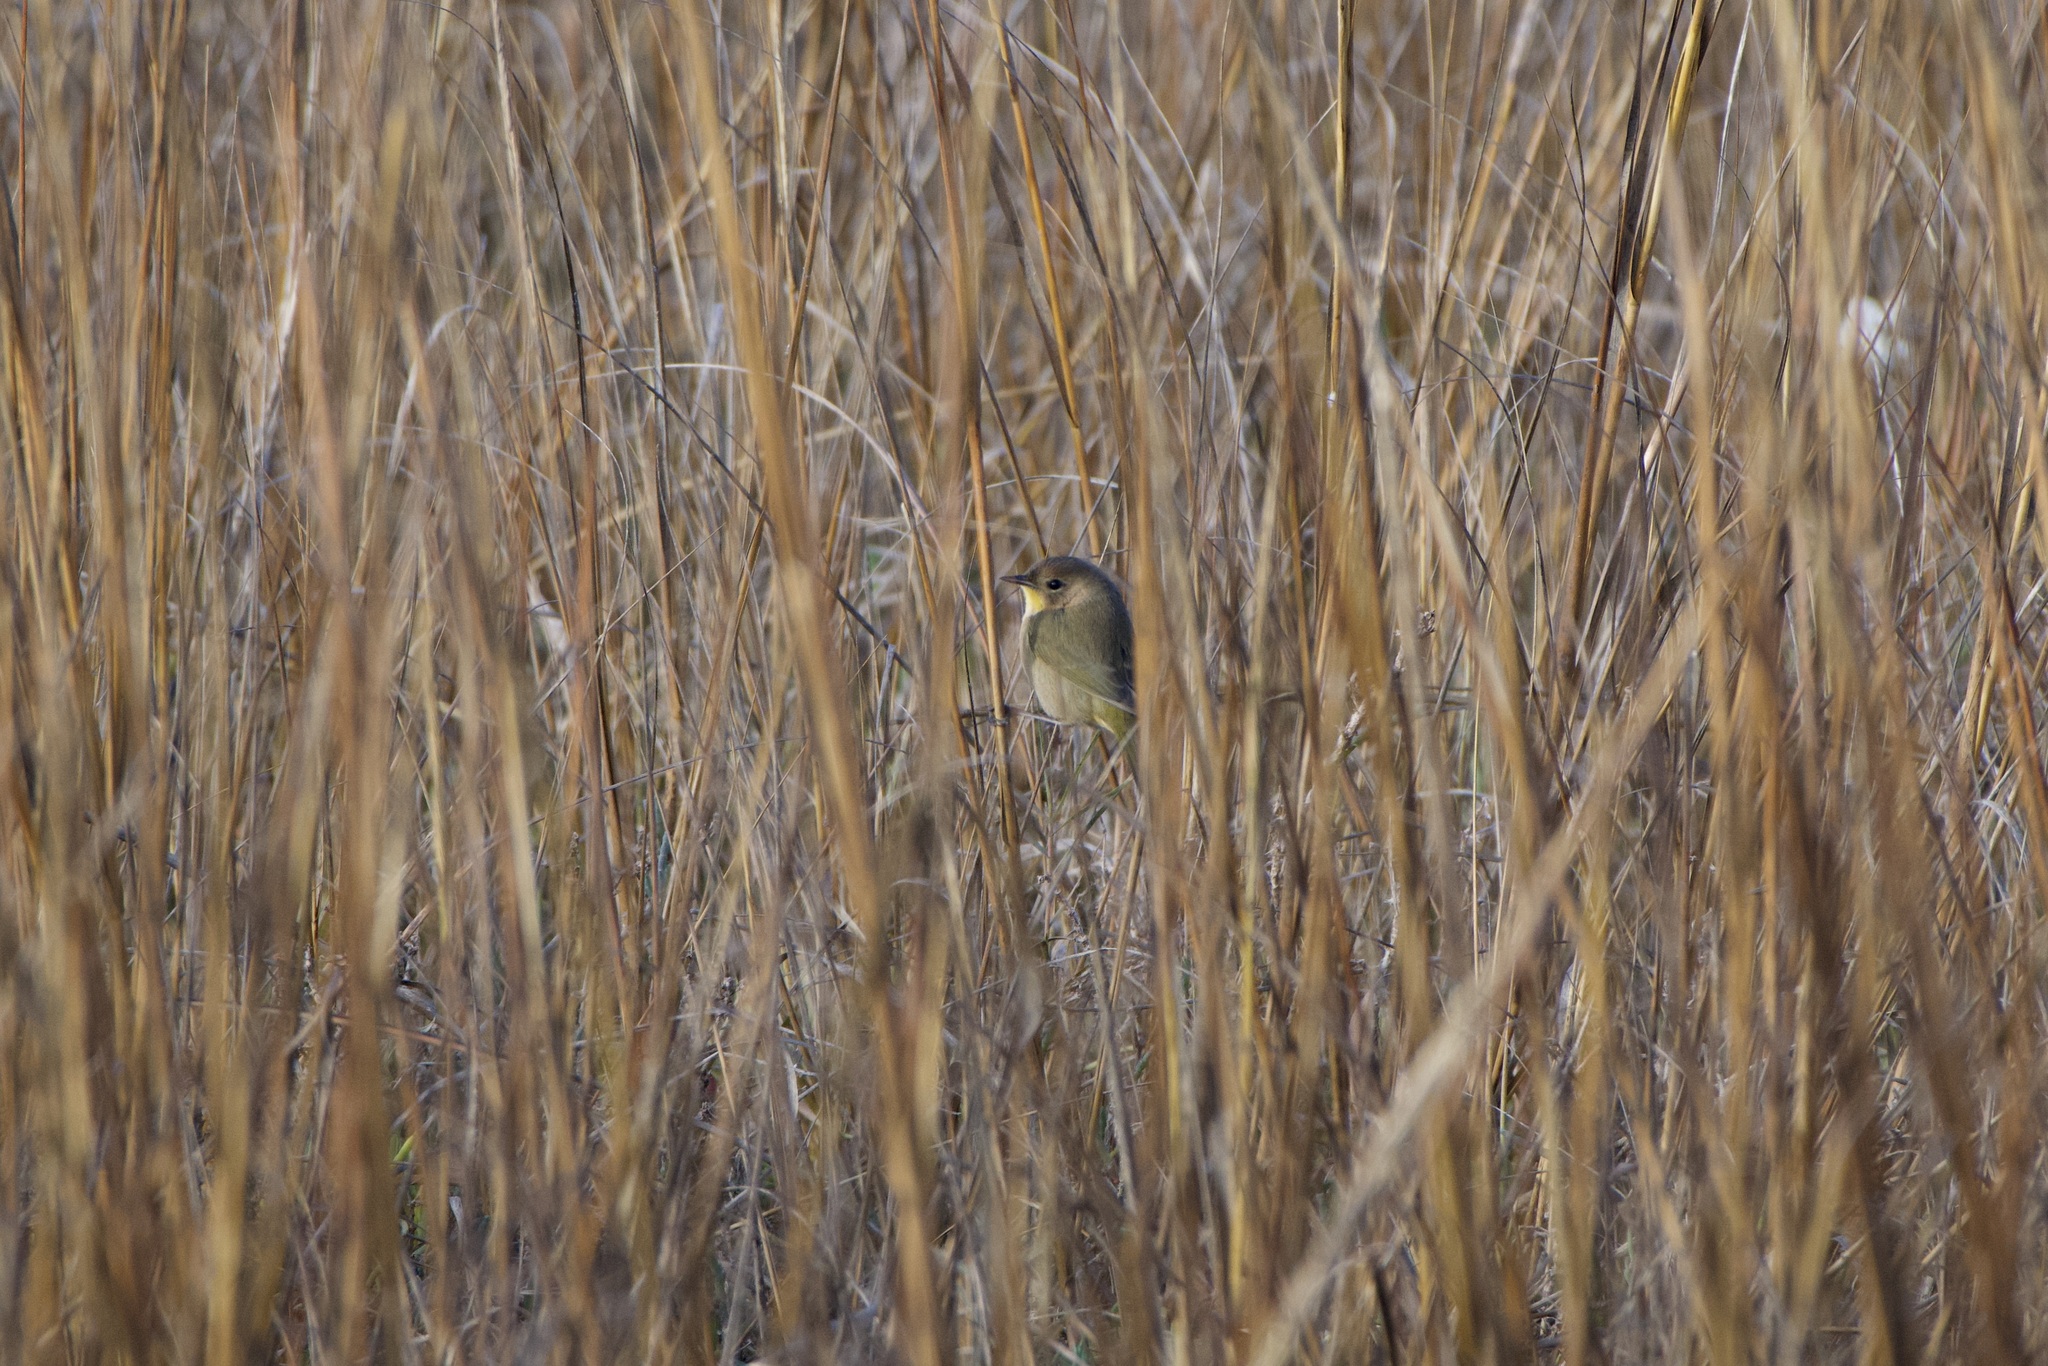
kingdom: Animalia
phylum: Chordata
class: Aves
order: Passeriformes
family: Parulidae
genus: Geothlypis
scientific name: Geothlypis trichas
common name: Common yellowthroat
